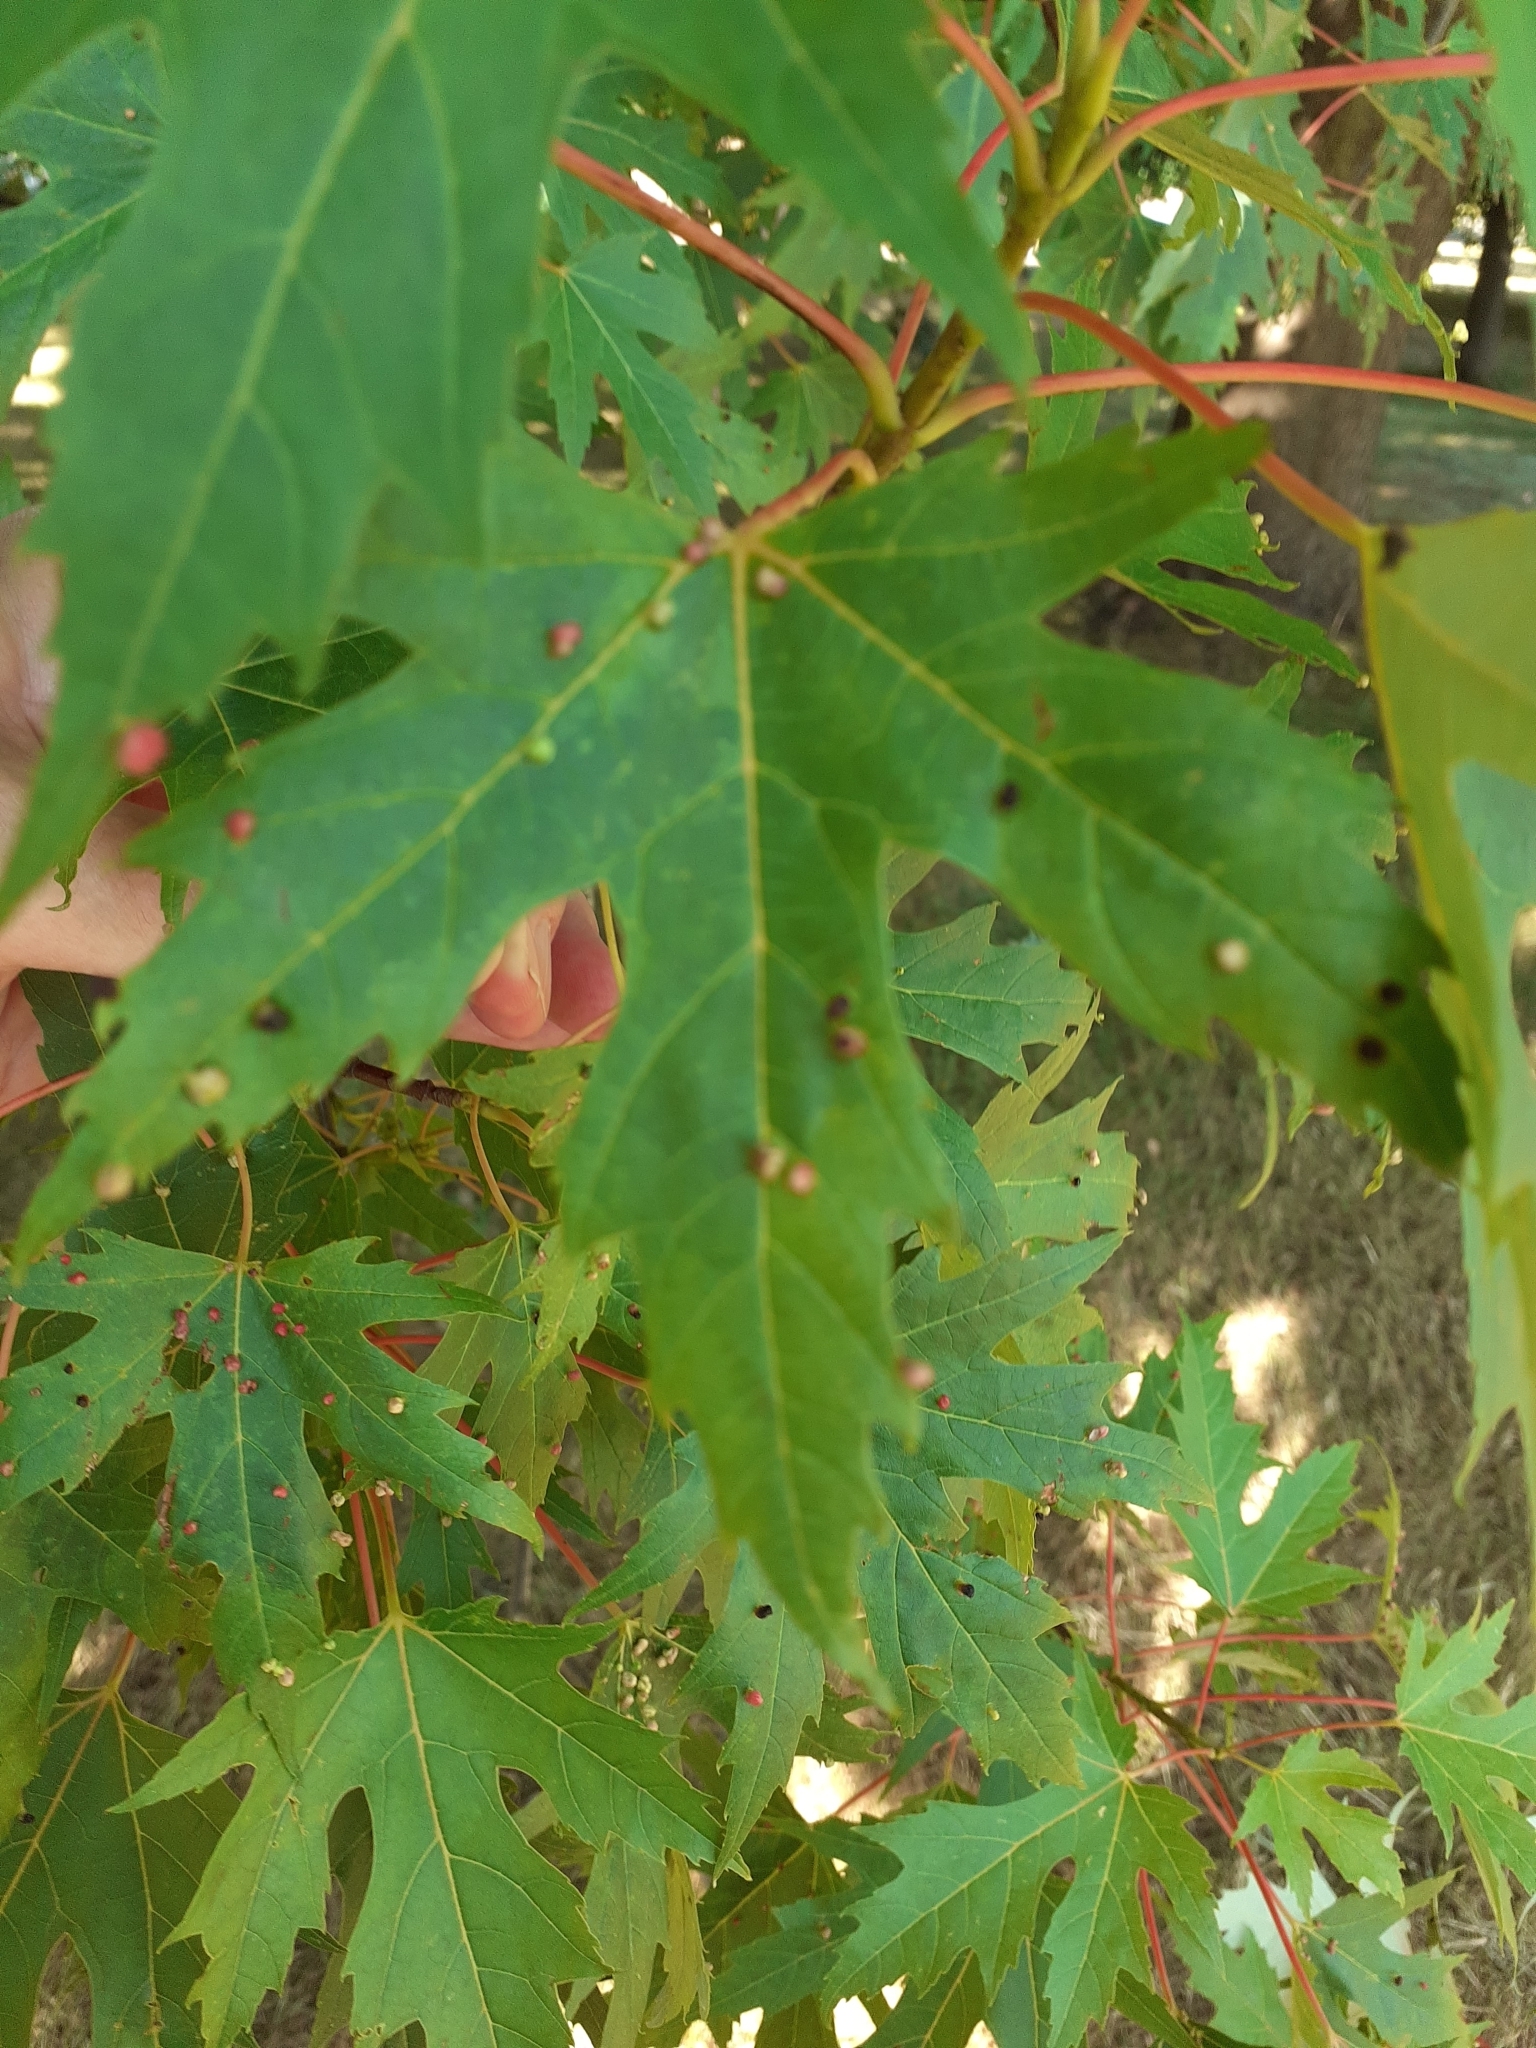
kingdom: Animalia
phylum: Arthropoda
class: Arachnida
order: Trombidiformes
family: Eriophyidae
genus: Vasates
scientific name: Vasates quadripedes
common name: Maple bladder gall mite
